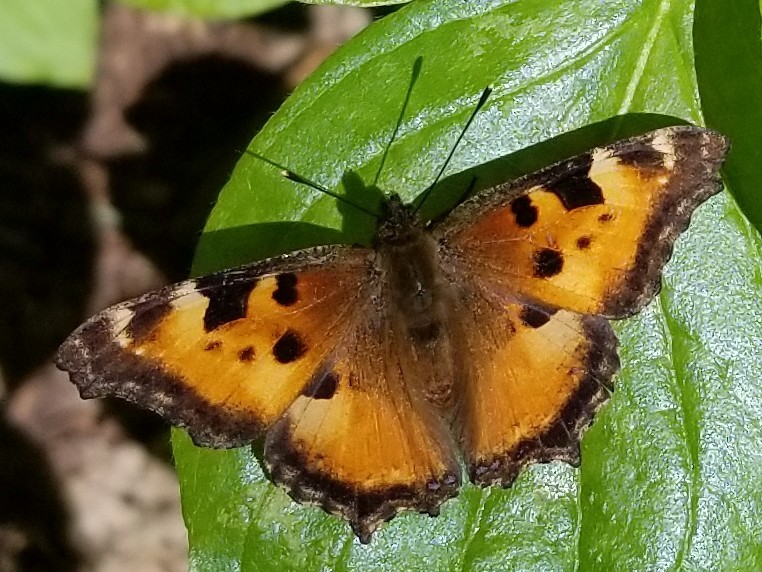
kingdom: Animalia
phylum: Arthropoda
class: Insecta
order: Lepidoptera
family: Nymphalidae
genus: Nymphalis
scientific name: Nymphalis californica
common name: California tortoiseshell
